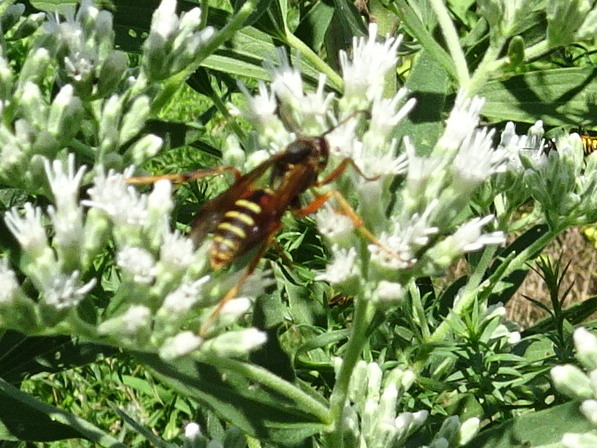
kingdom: Animalia
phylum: Arthropoda
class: Insecta
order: Hymenoptera
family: Eumenidae
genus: Polistes
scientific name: Polistes fuscatus
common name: Dark paper wasp
